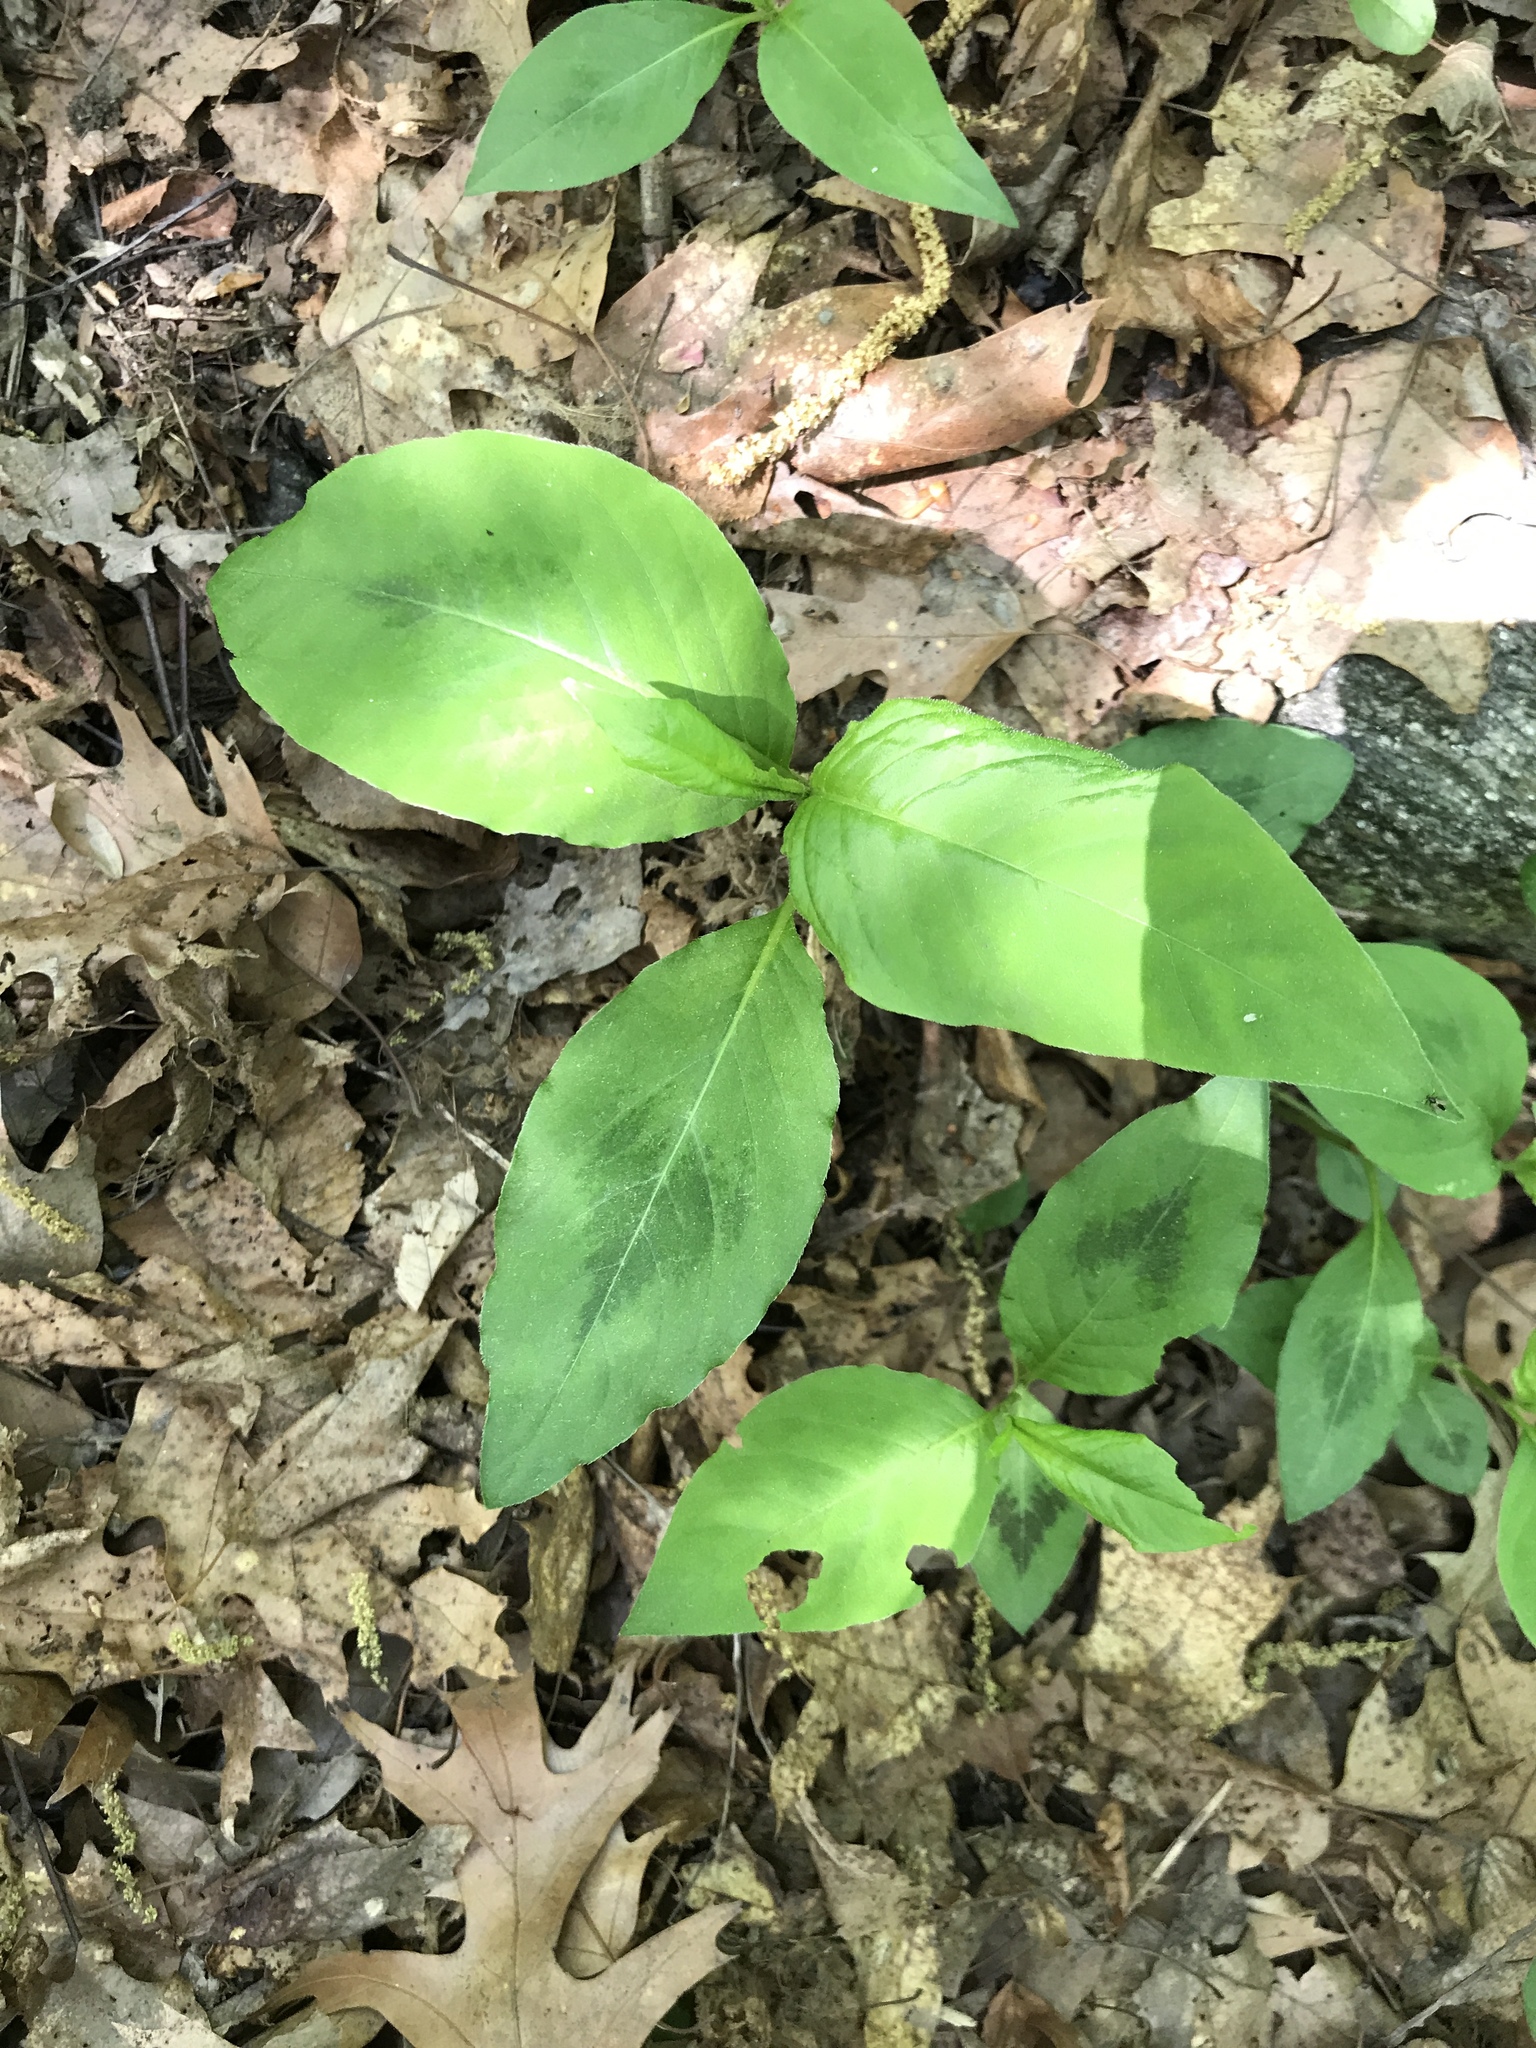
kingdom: Plantae
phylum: Tracheophyta
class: Magnoliopsida
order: Caryophyllales
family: Polygonaceae
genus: Persicaria
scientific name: Persicaria virginiana
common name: Jumpseed
